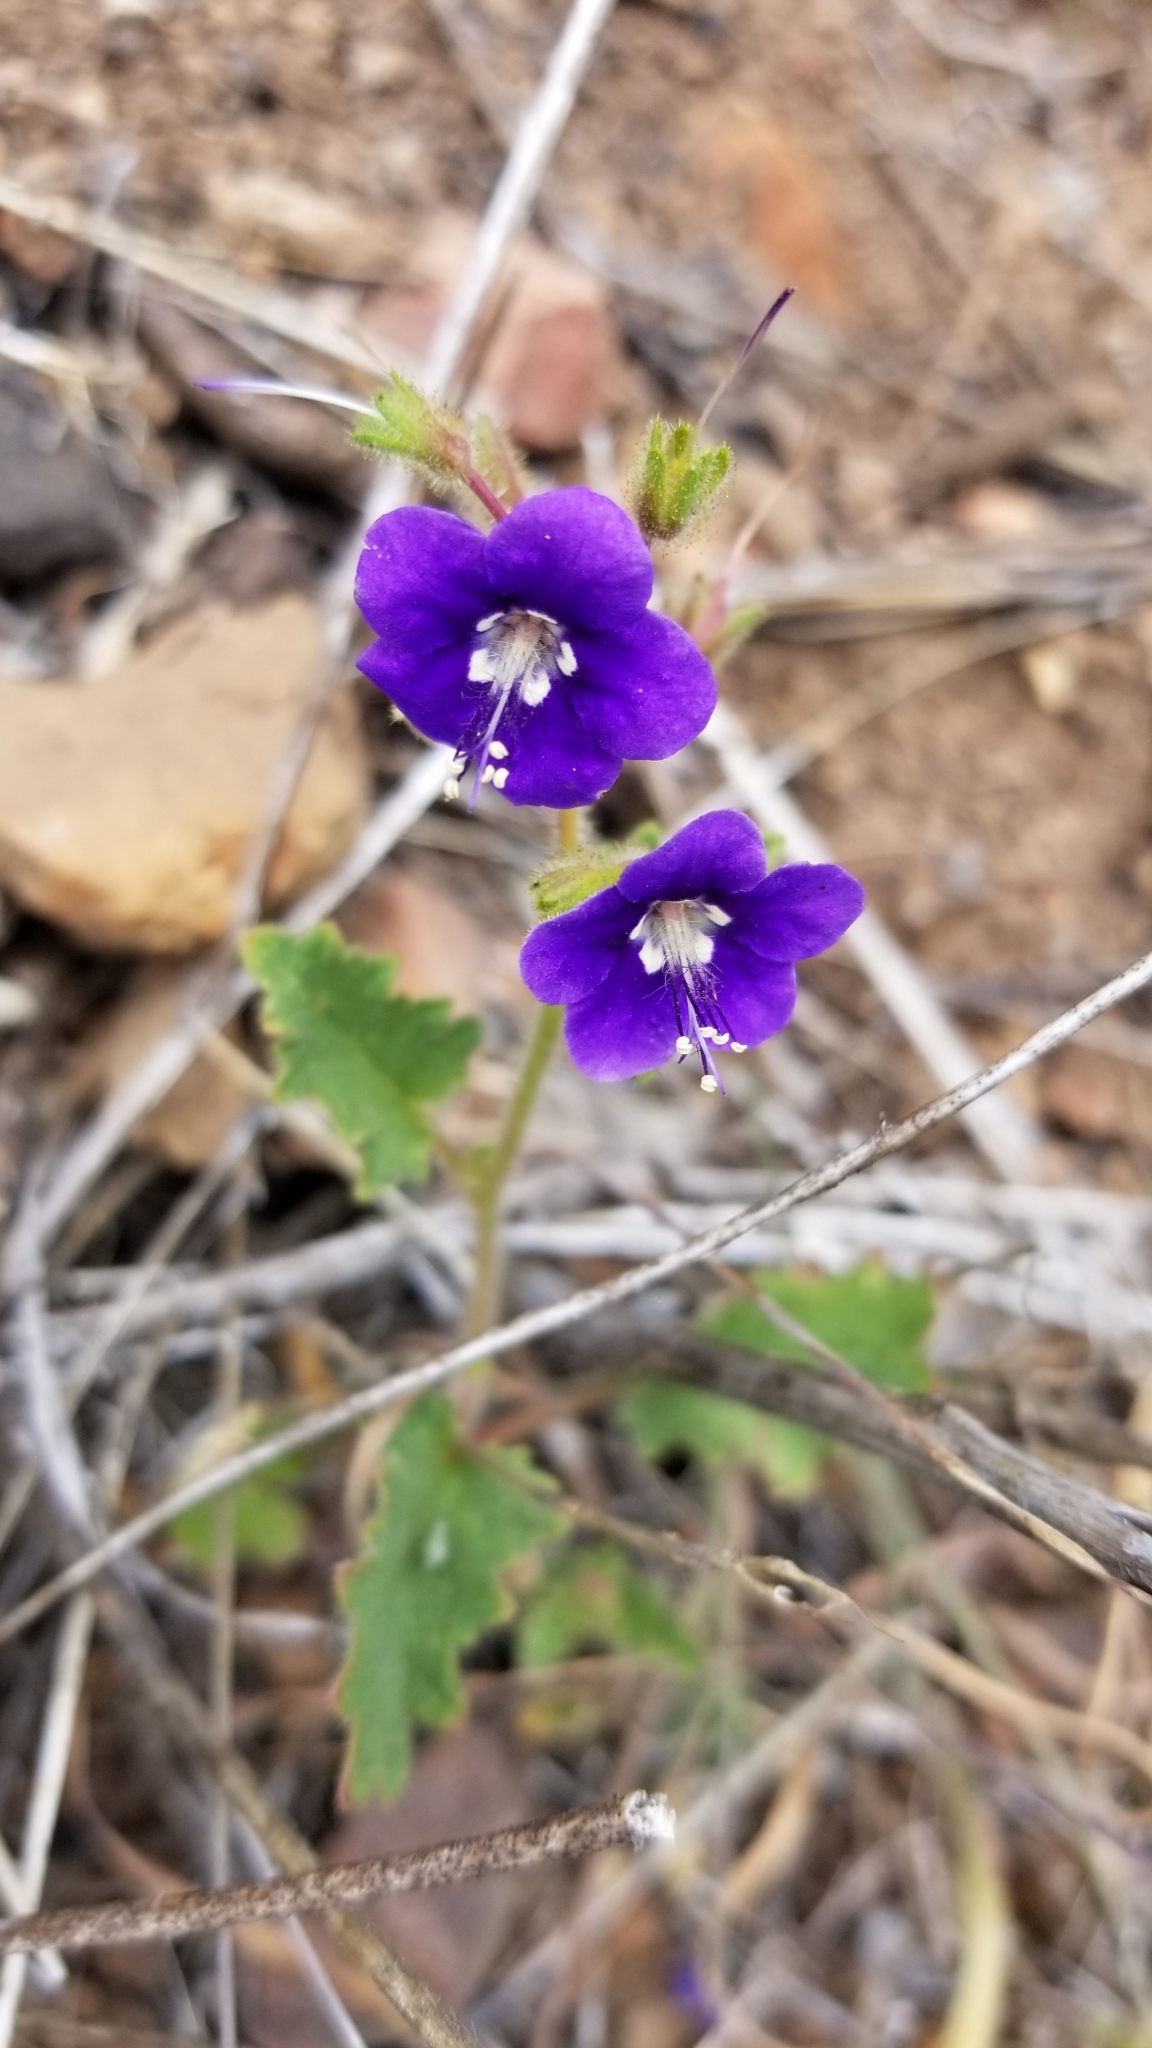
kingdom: Plantae
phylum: Tracheophyta
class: Magnoliopsida
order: Boraginales
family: Hydrophyllaceae
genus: Phacelia
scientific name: Phacelia parryi
